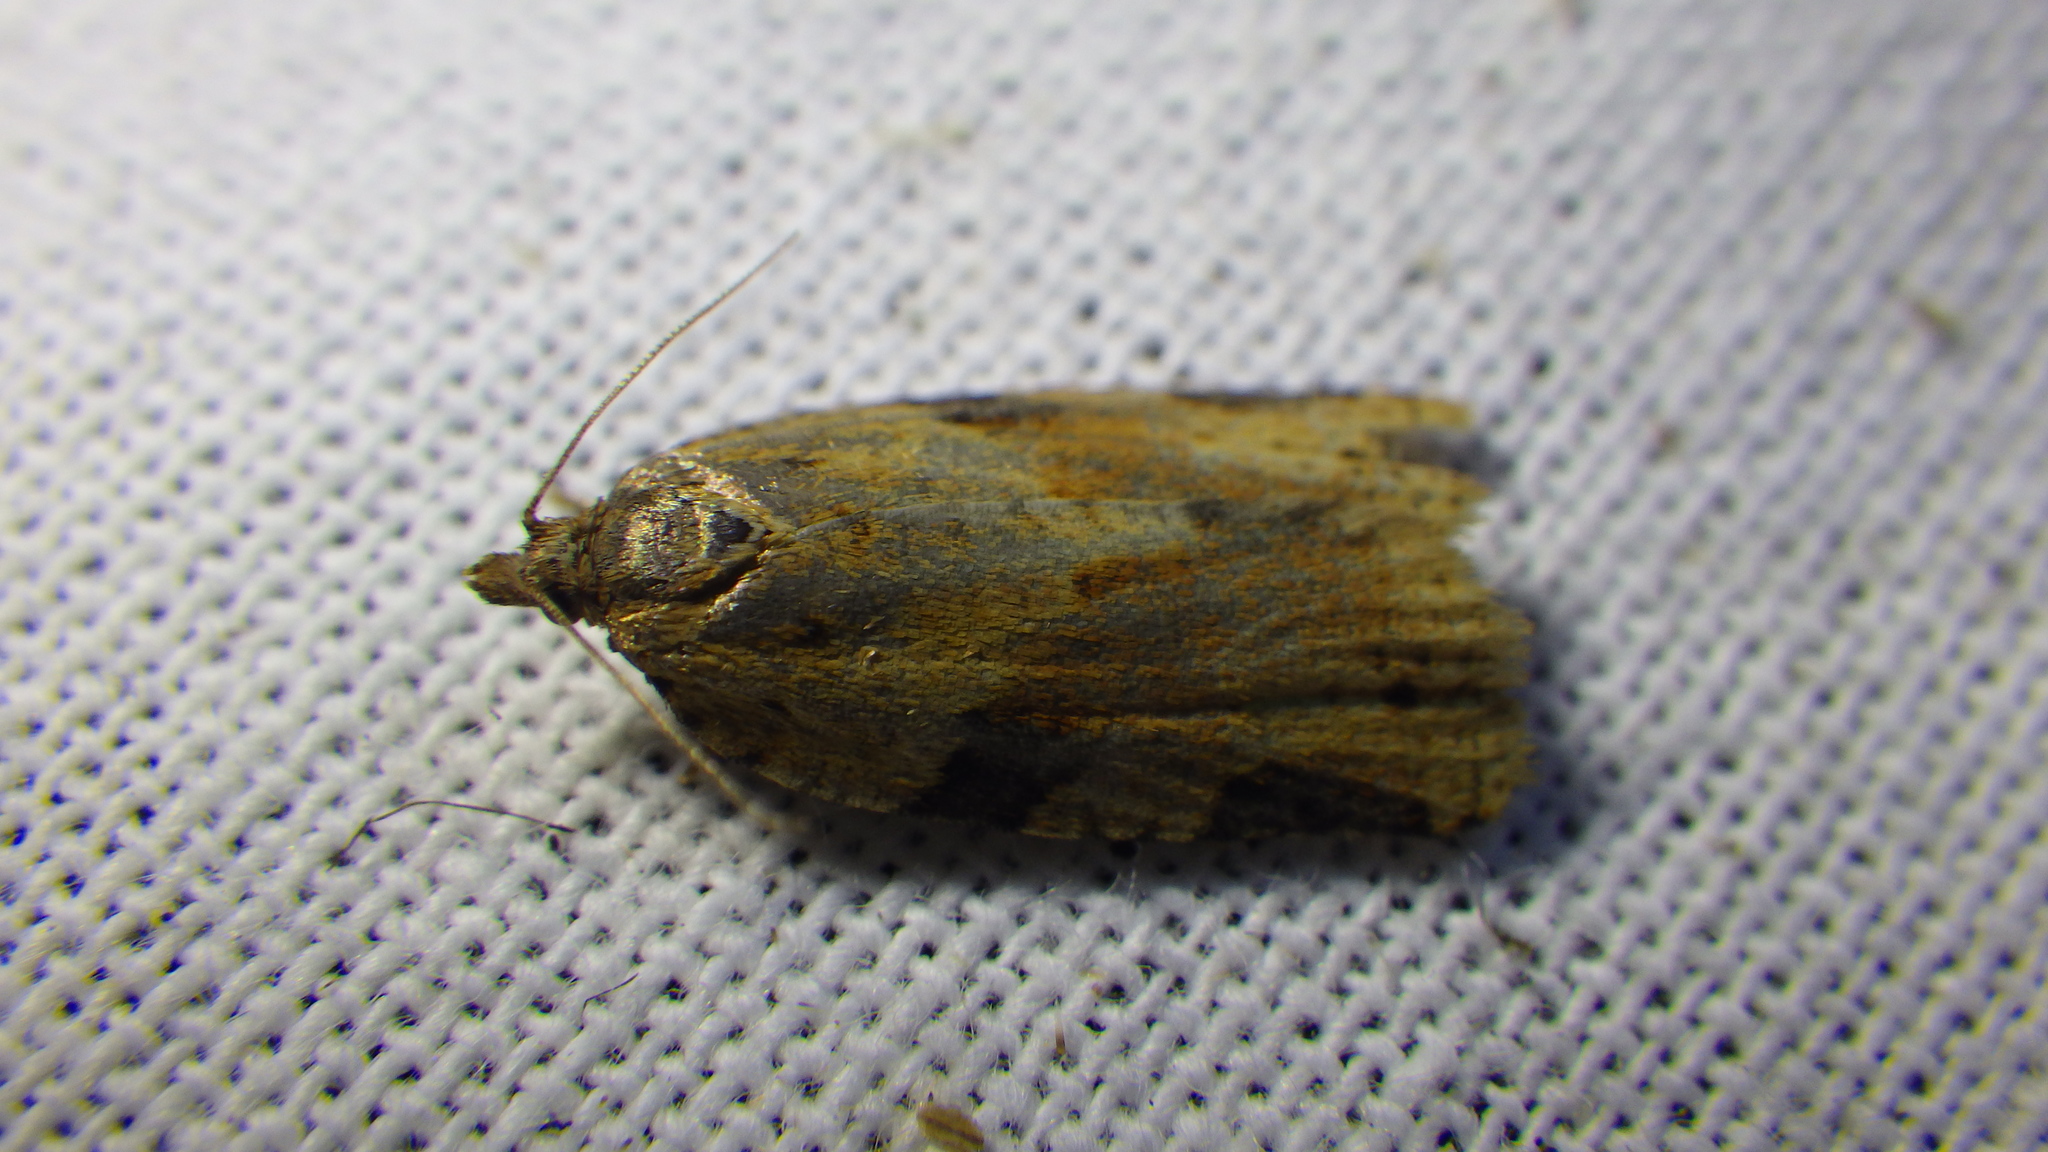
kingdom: Animalia
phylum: Arthropoda
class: Insecta
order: Lepidoptera
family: Tortricidae
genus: Clepsis
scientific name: Clepsis spectrana
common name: Cyclamen tortrix
